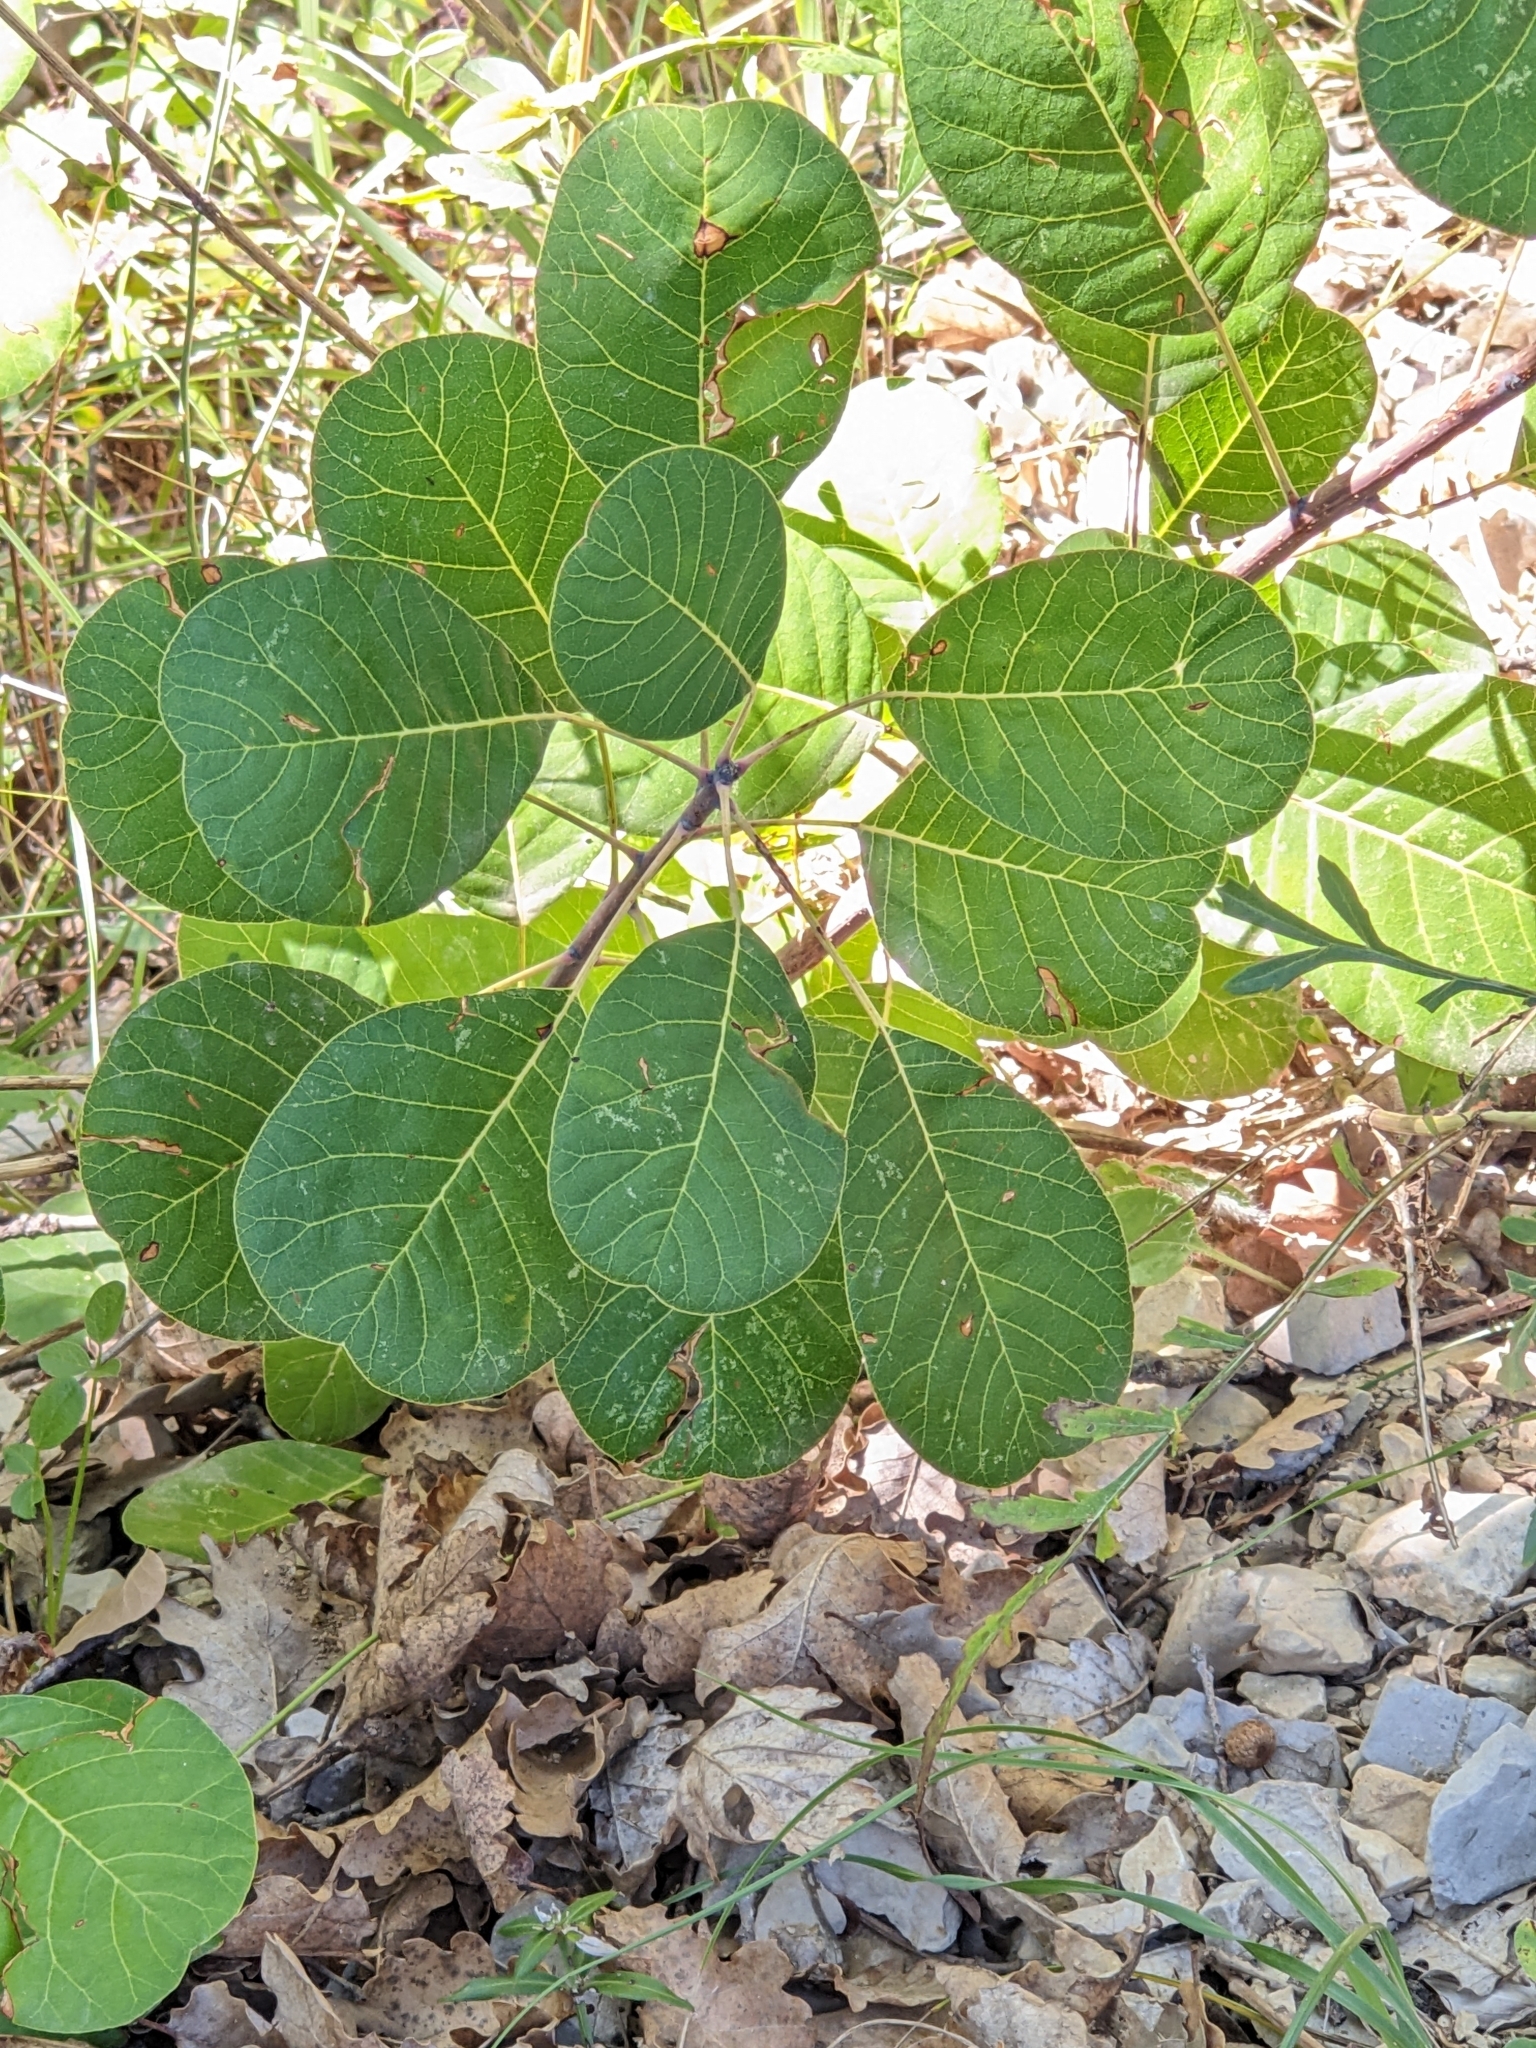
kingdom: Plantae
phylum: Tracheophyta
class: Magnoliopsida
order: Sapindales
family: Anacardiaceae
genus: Cotinus
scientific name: Cotinus coggygria
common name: Smoke-tree
